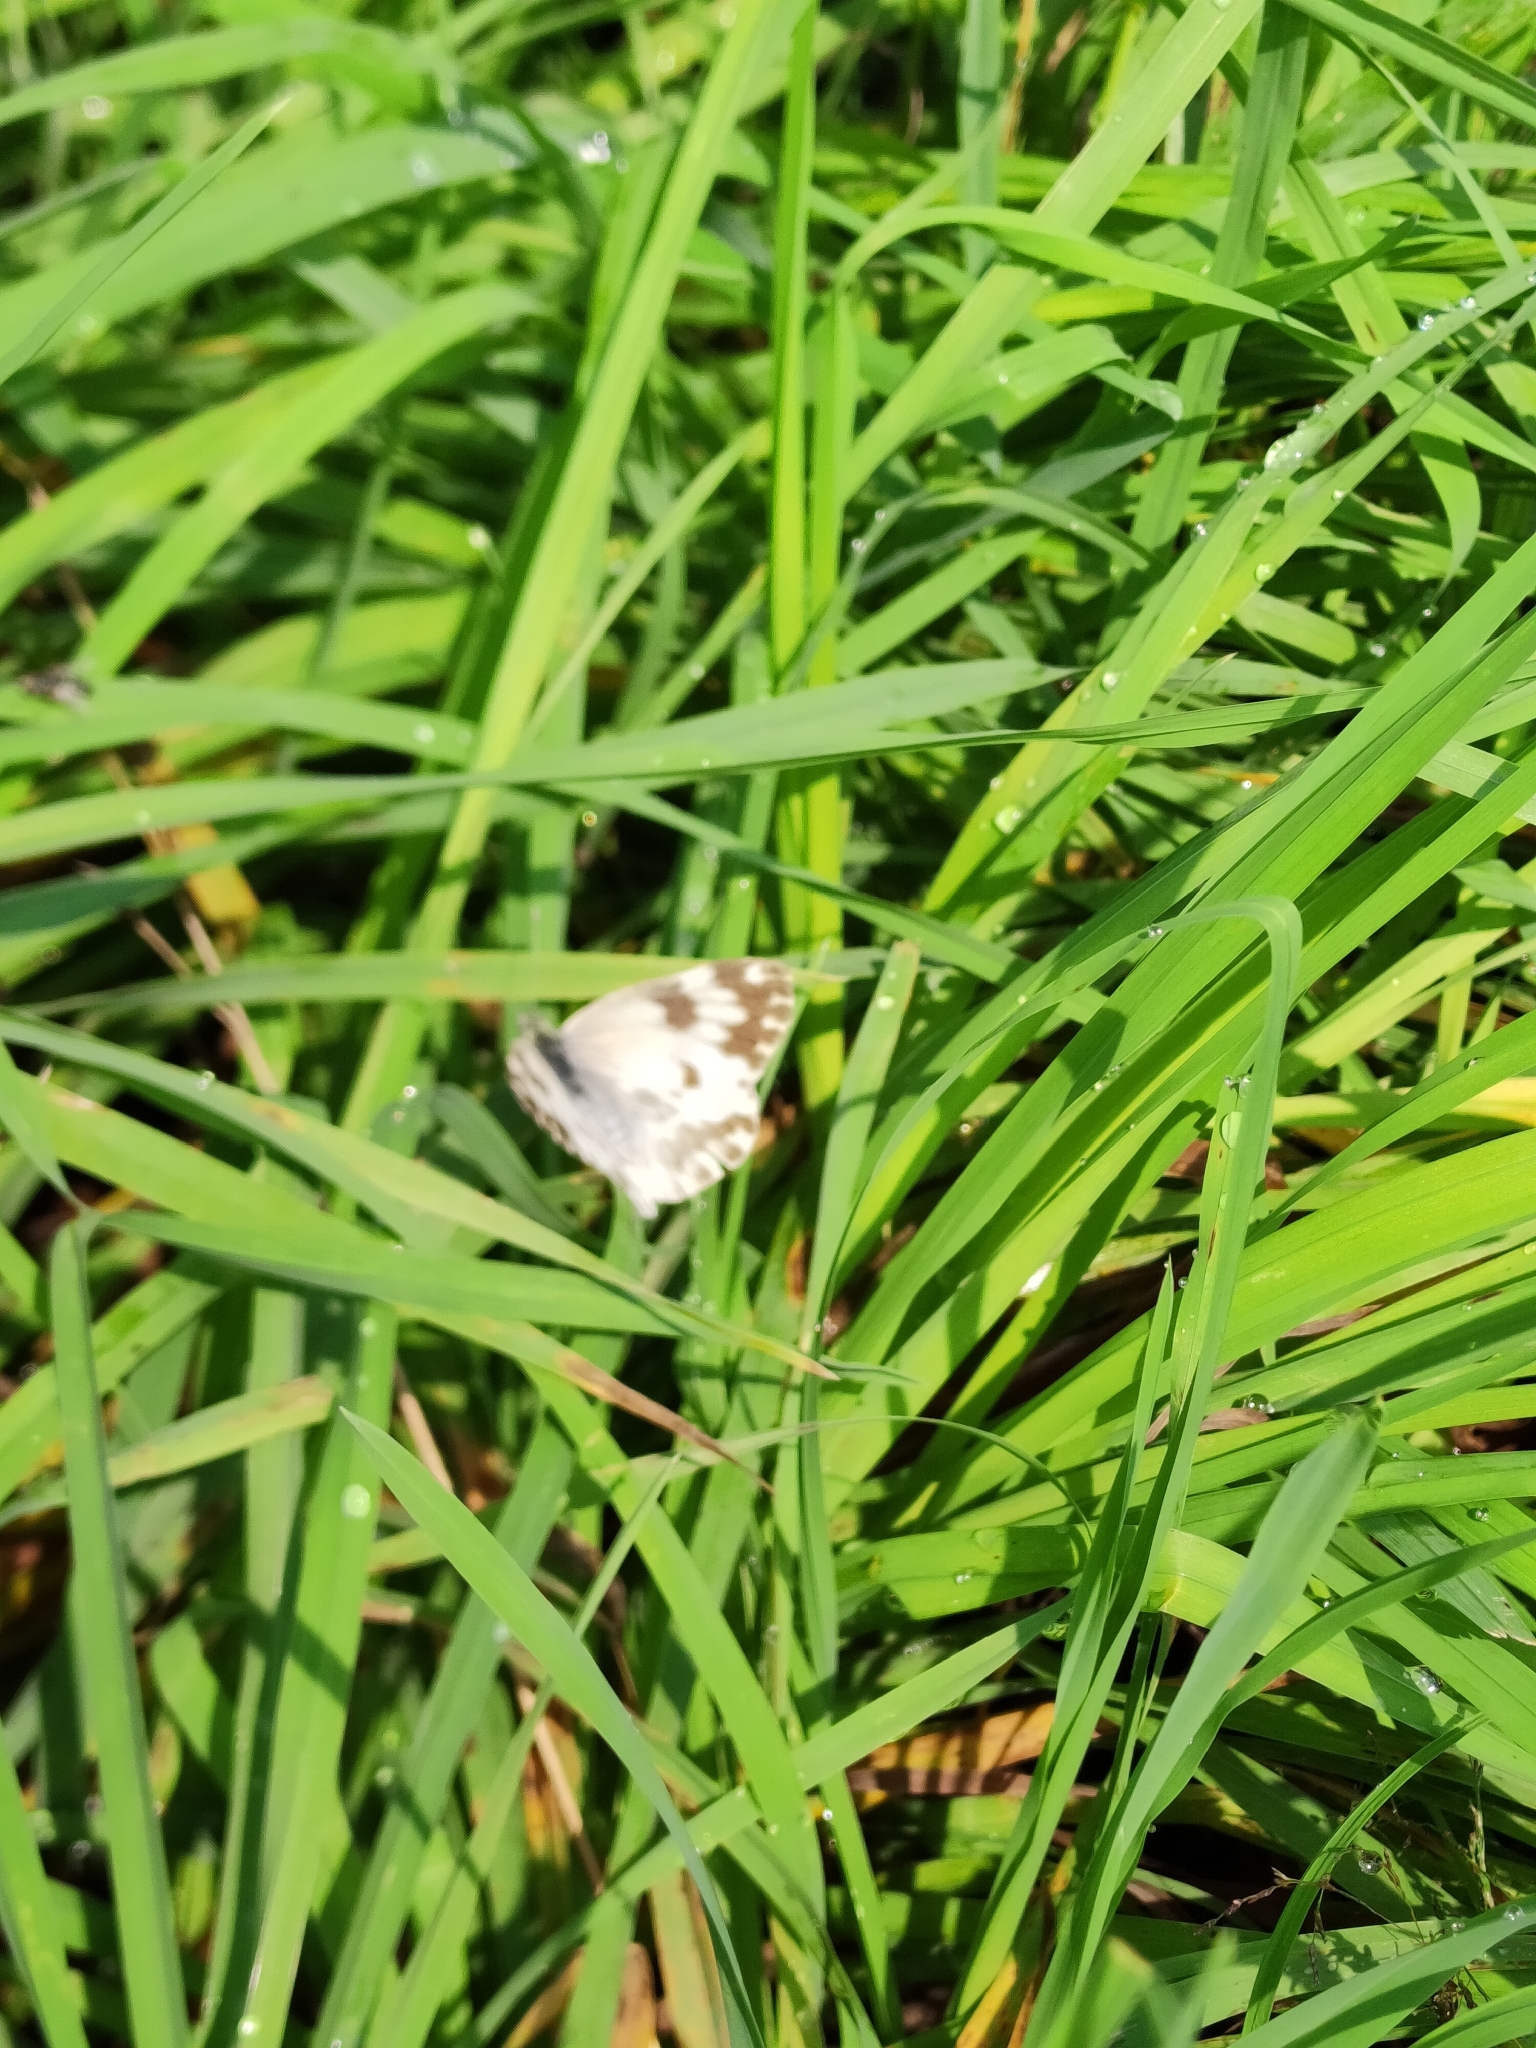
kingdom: Animalia
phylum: Arthropoda
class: Insecta
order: Lepidoptera
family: Pieridae
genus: Pontia
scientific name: Pontia edusa
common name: Eastern bath white
